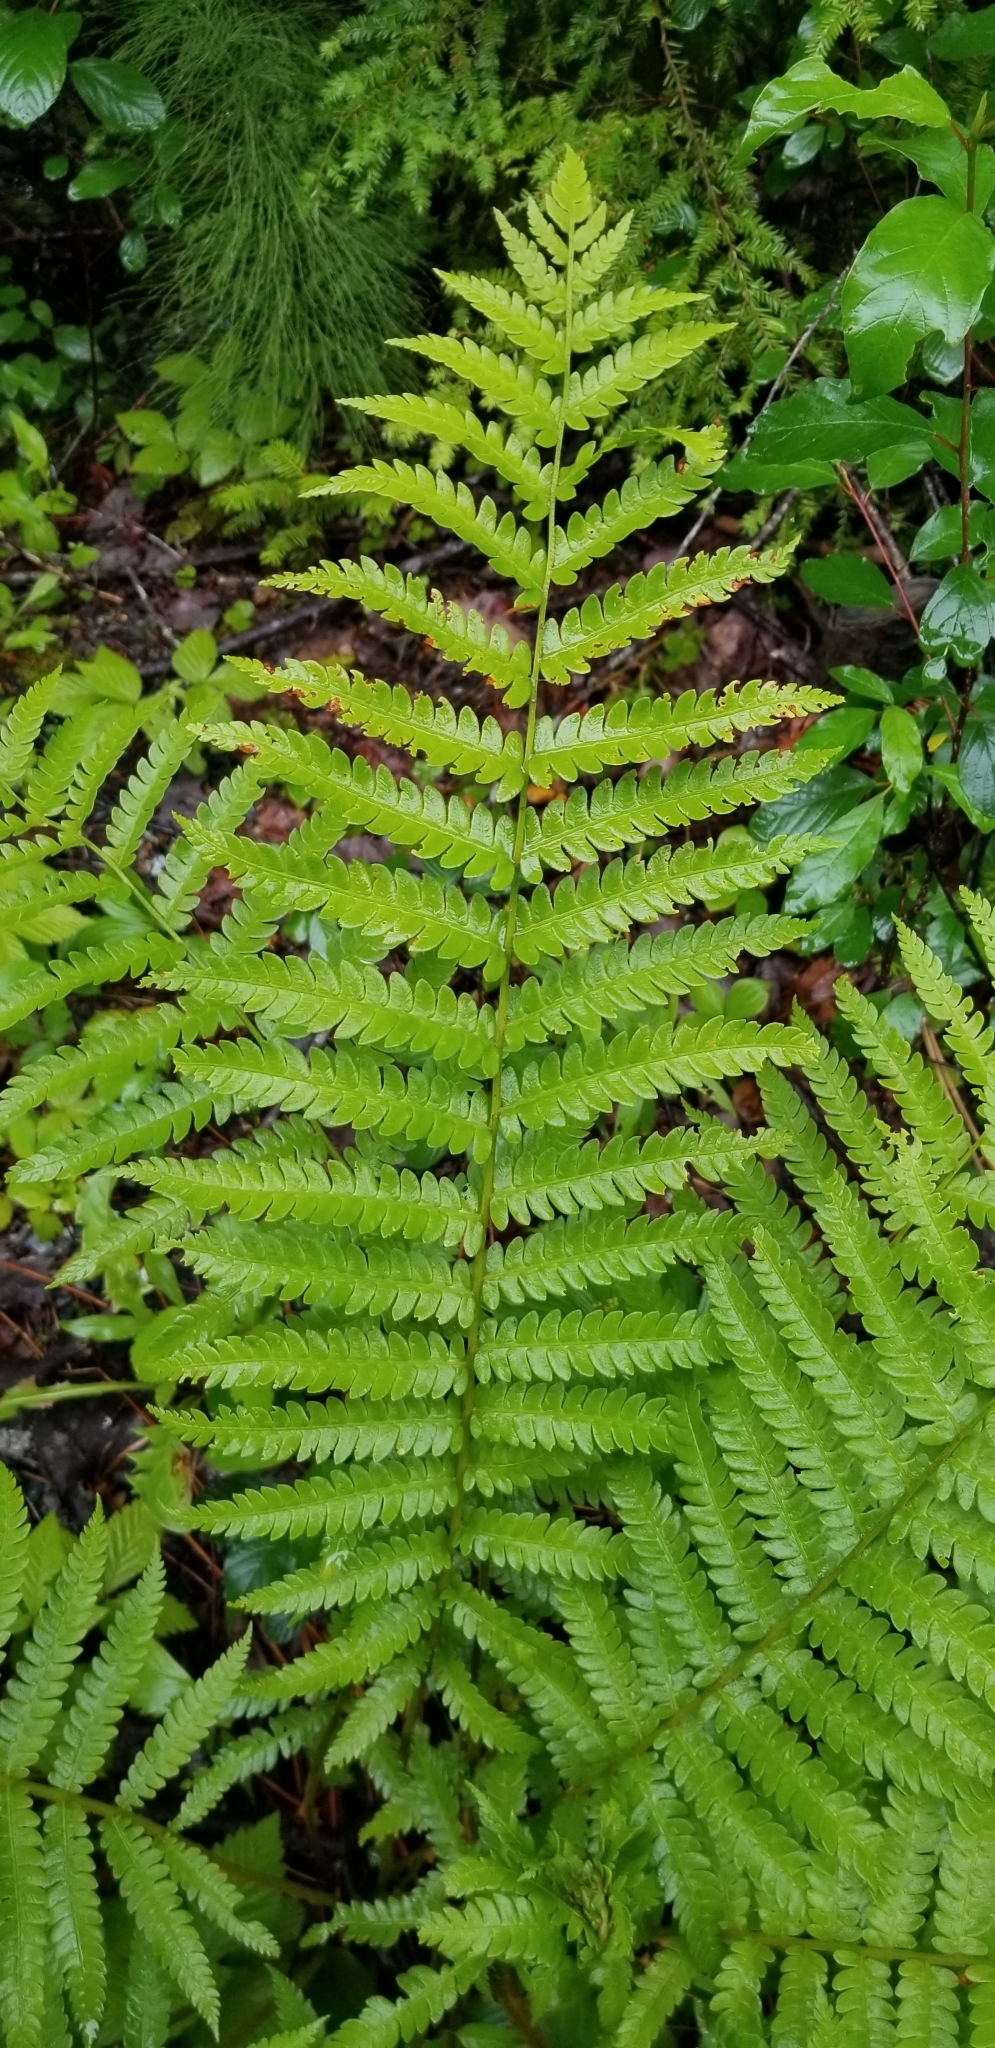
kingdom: Plantae
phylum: Tracheophyta
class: Polypodiopsida
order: Osmundales
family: Osmundaceae
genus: Osmundastrum
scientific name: Osmundastrum cinnamomeum
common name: Cinnamon fern
